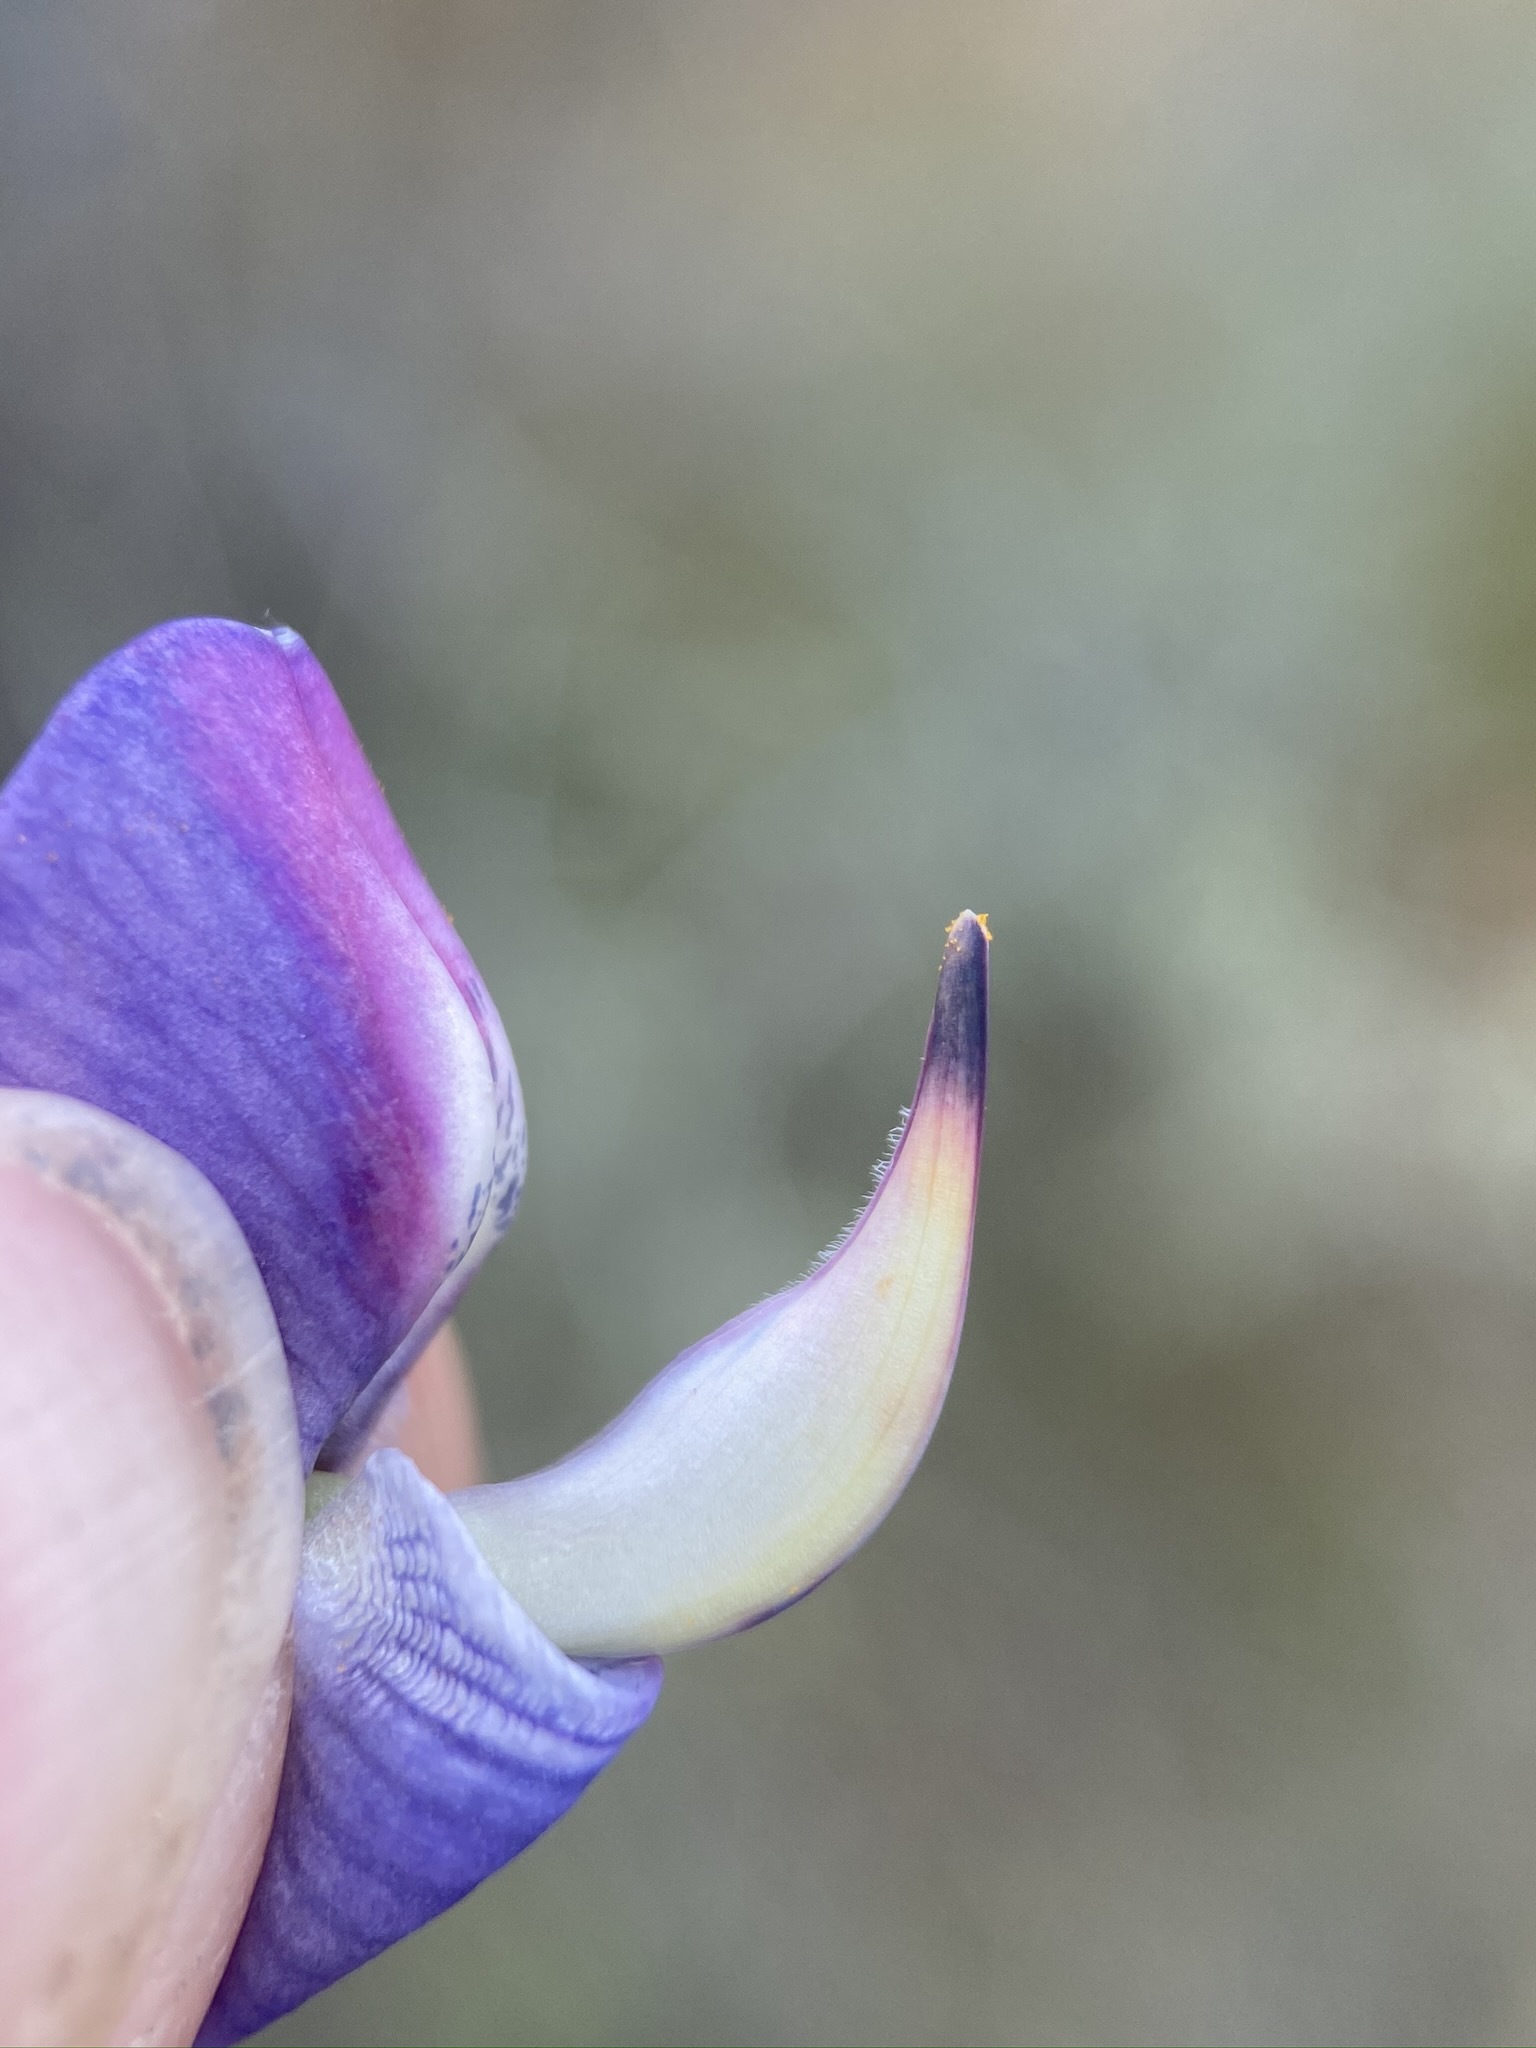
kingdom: Plantae
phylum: Tracheophyta
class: Magnoliopsida
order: Fabales
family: Fabaceae
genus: Lupinus
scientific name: Lupinus spectabilis
